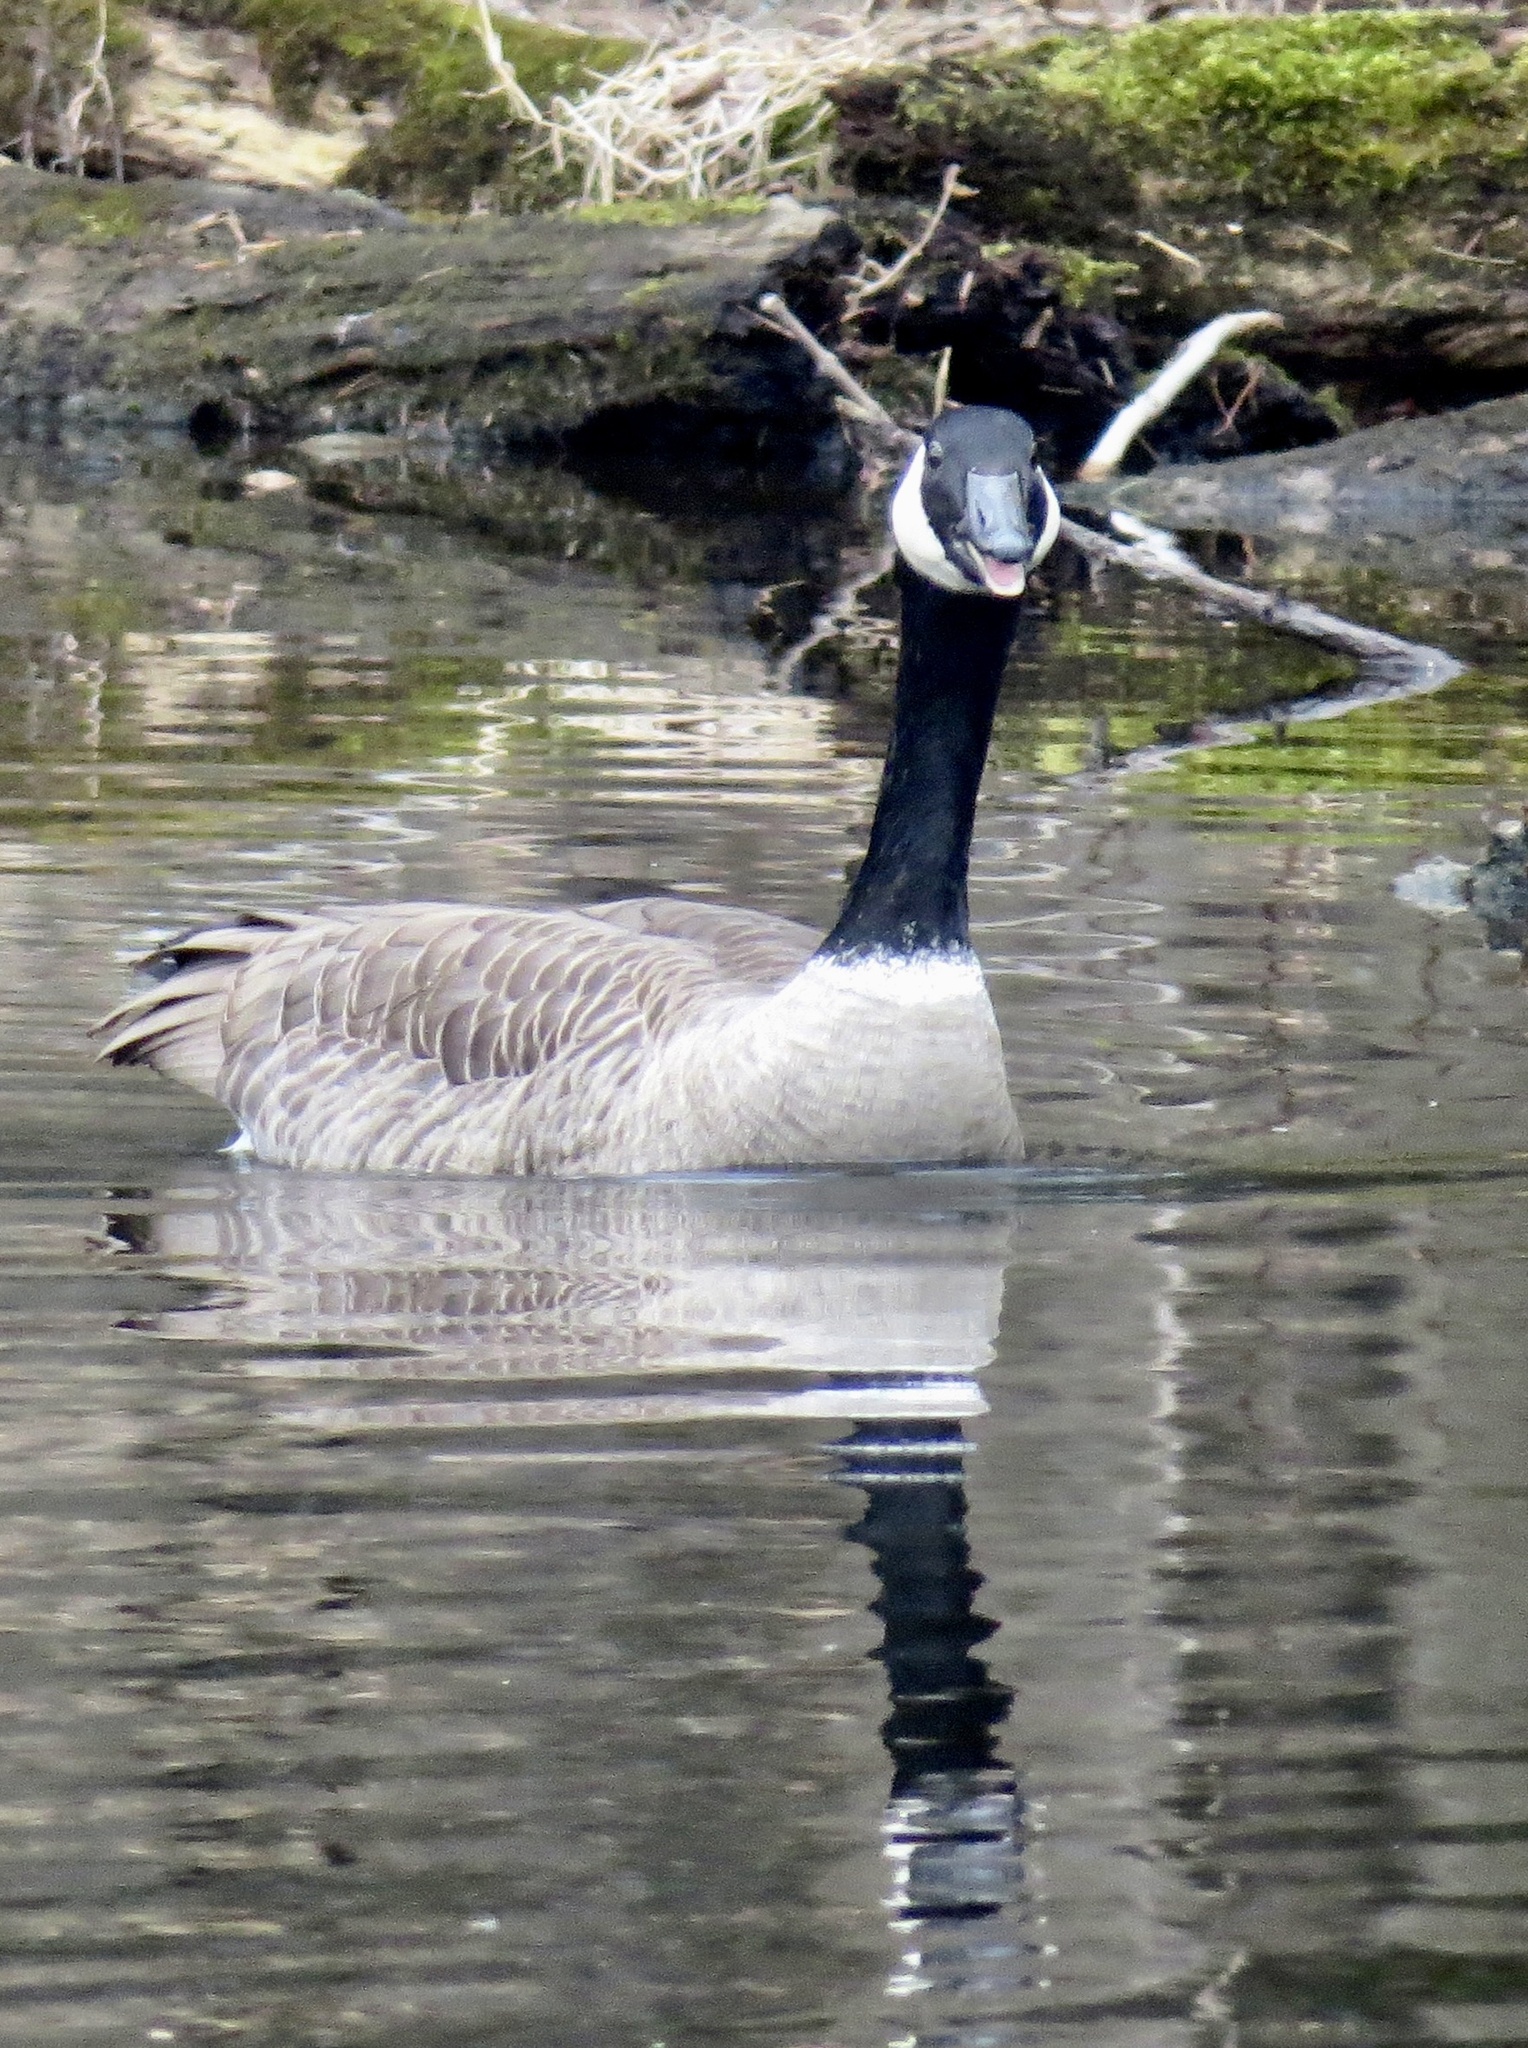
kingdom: Animalia
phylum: Chordata
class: Aves
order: Anseriformes
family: Anatidae
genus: Branta
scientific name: Branta canadensis
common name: Canada goose
